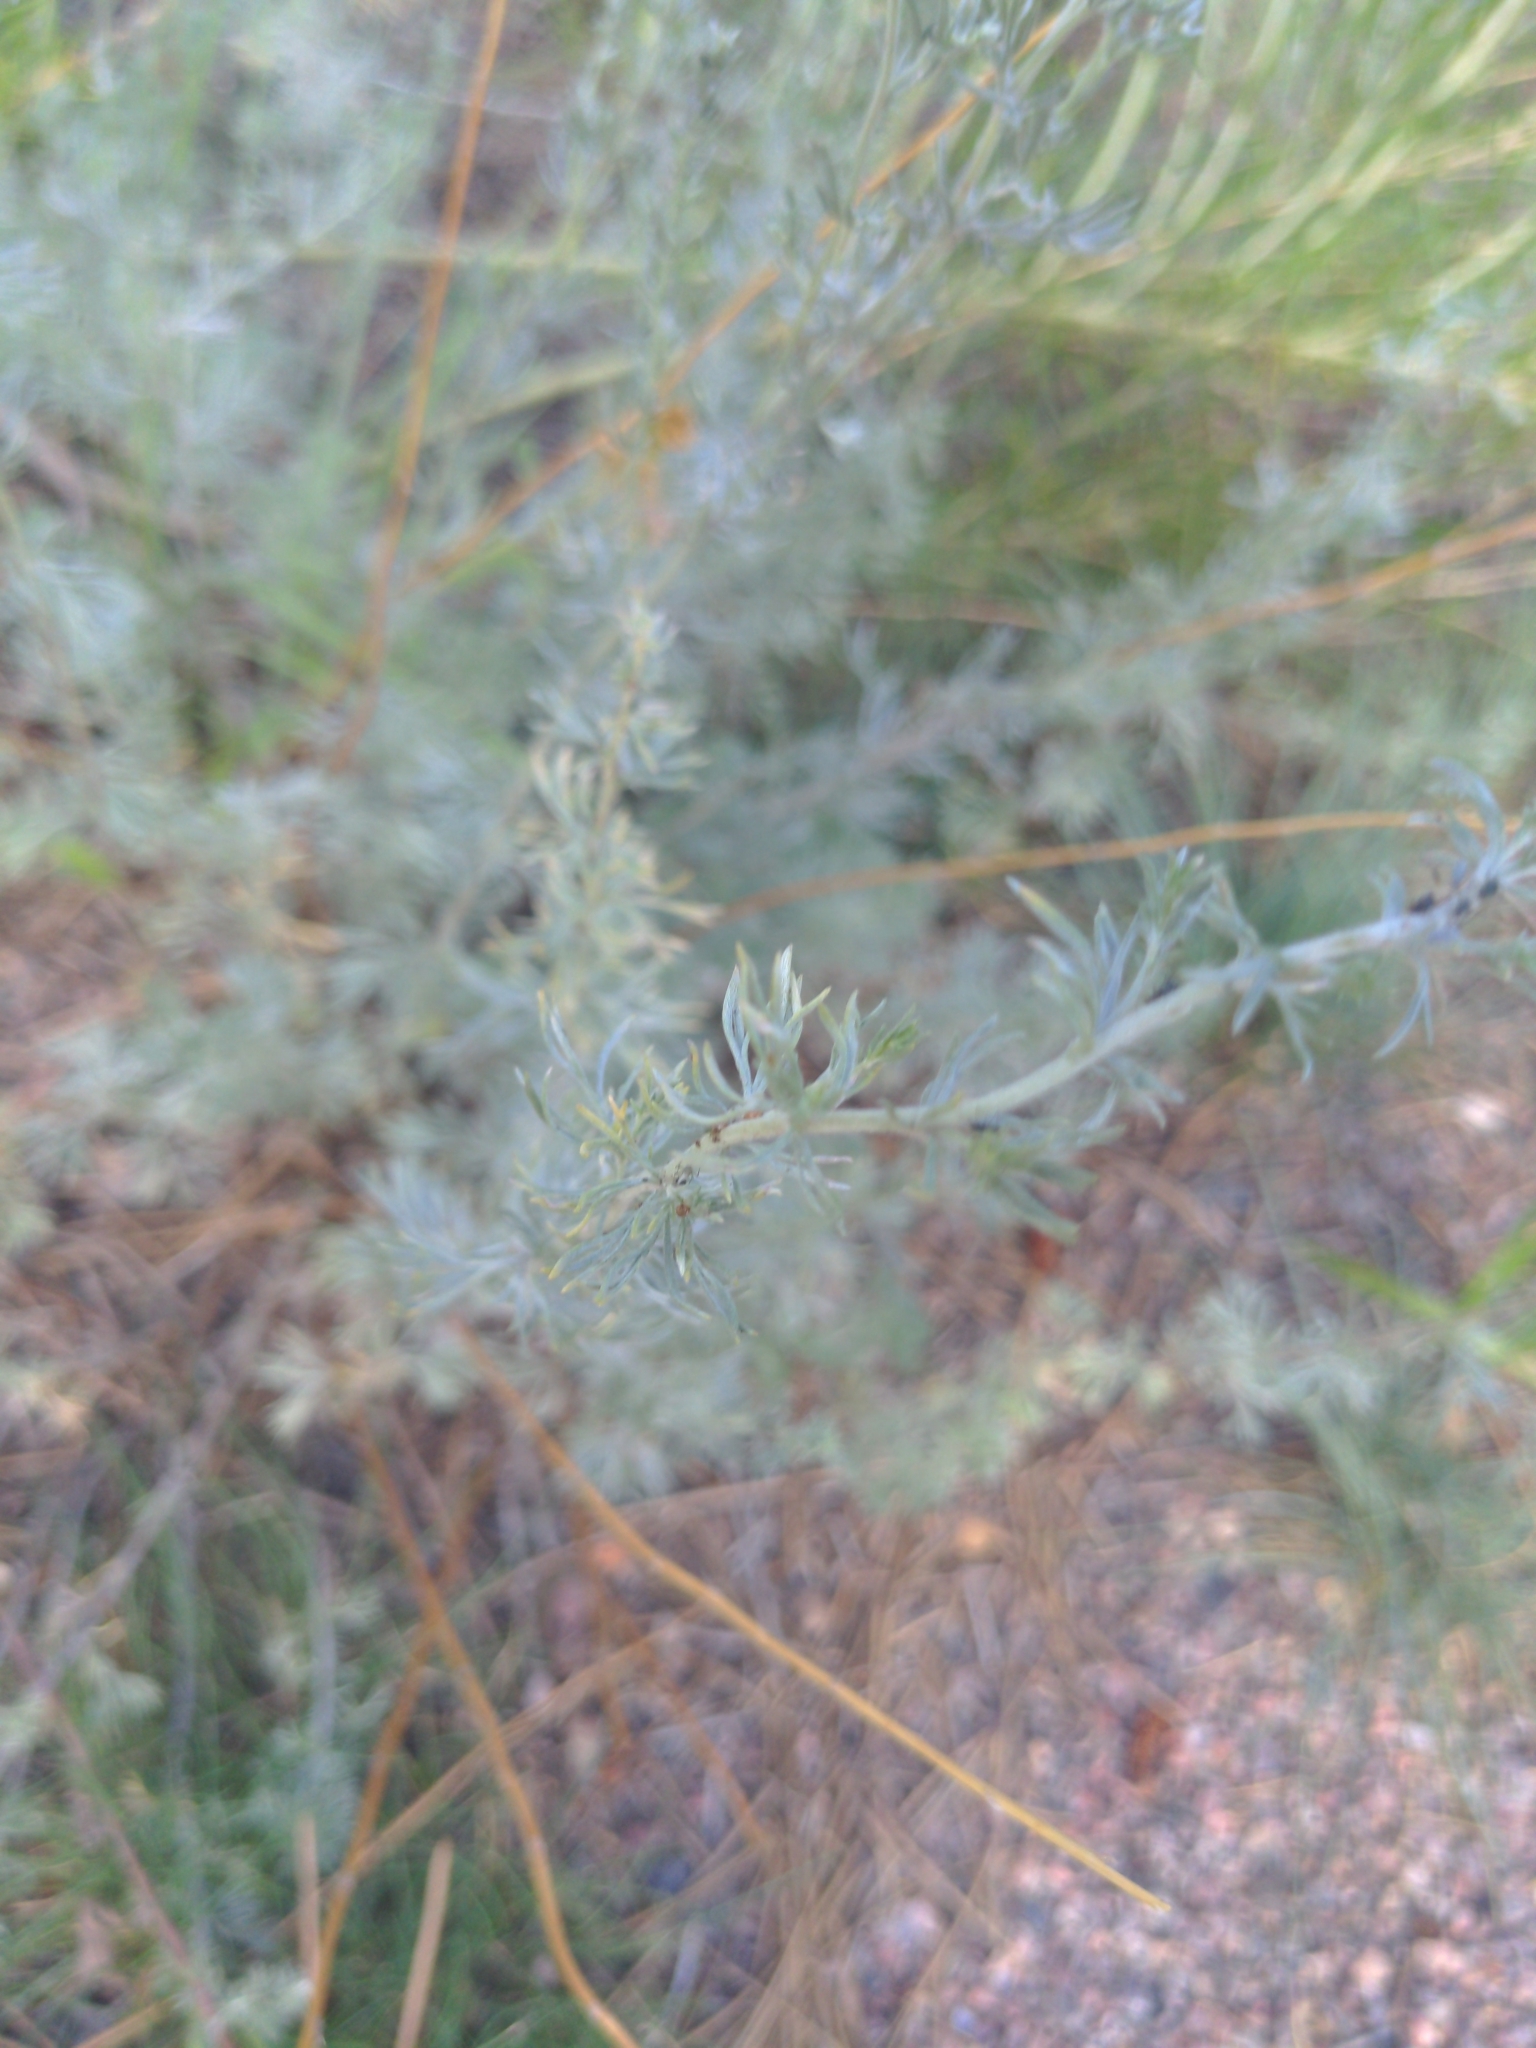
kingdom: Plantae
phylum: Tracheophyta
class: Magnoliopsida
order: Asterales
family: Asteraceae
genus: Artemisia
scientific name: Artemisia frigida
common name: Prairie sagewort
